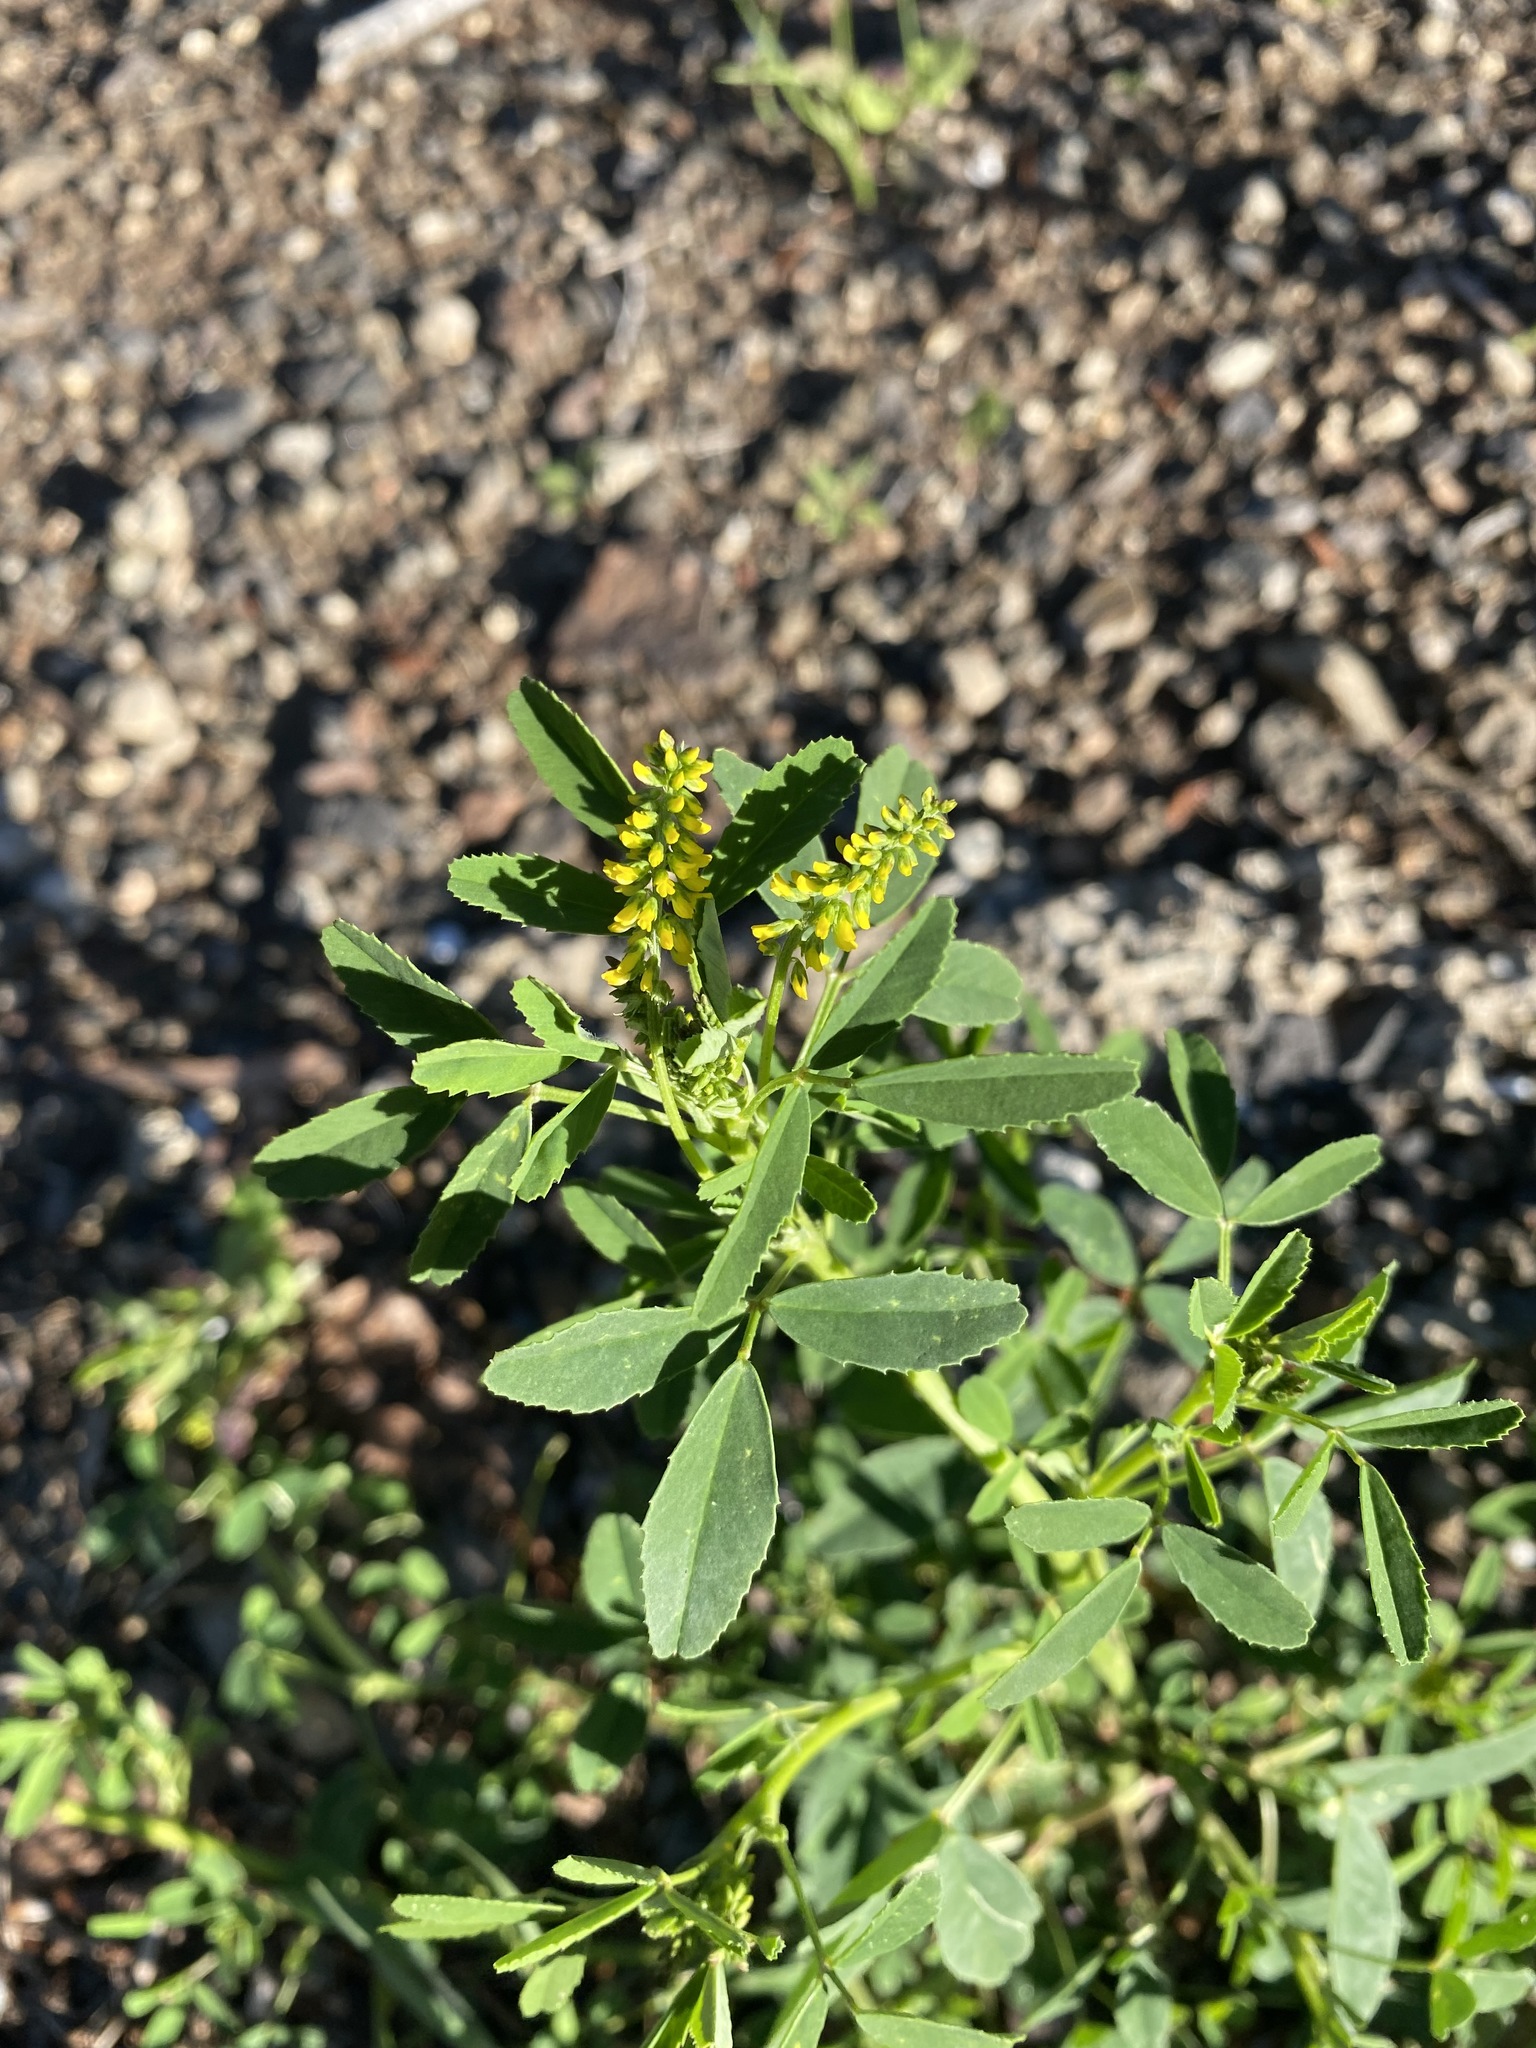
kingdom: Plantae
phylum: Tracheophyta
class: Magnoliopsida
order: Fabales
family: Fabaceae
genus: Melilotus
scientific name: Melilotus indicus
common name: Small melilot
